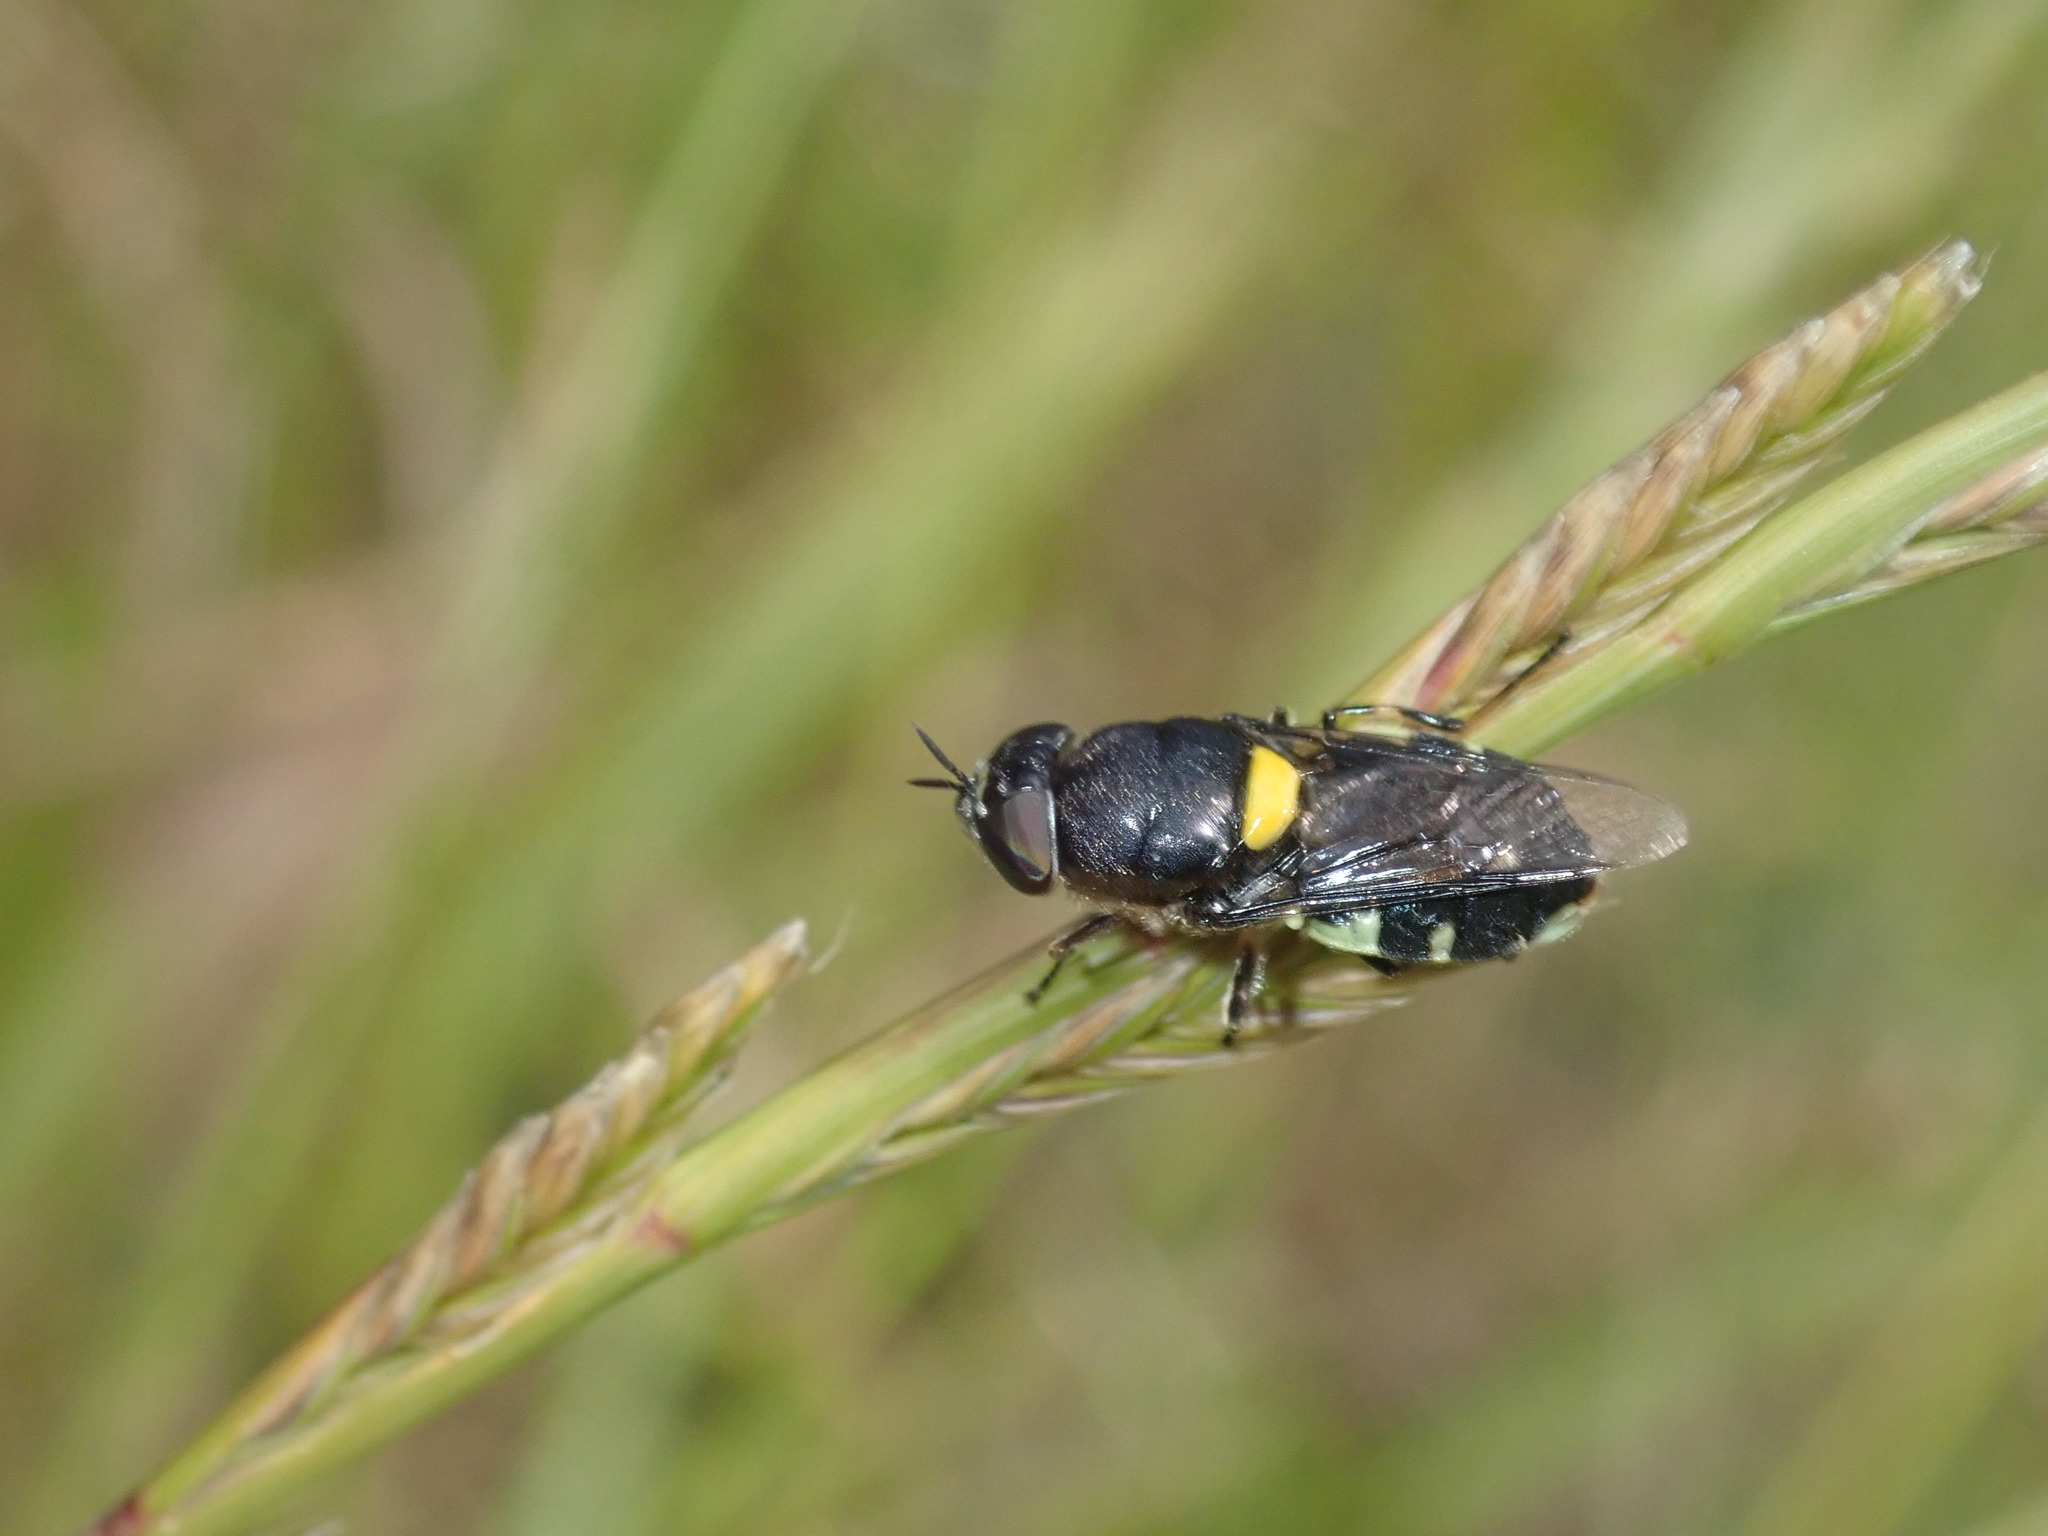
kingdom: Animalia
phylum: Arthropoda
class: Insecta
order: Diptera
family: Stratiomyidae
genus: Odontomyia
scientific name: Odontomyia hunteri
